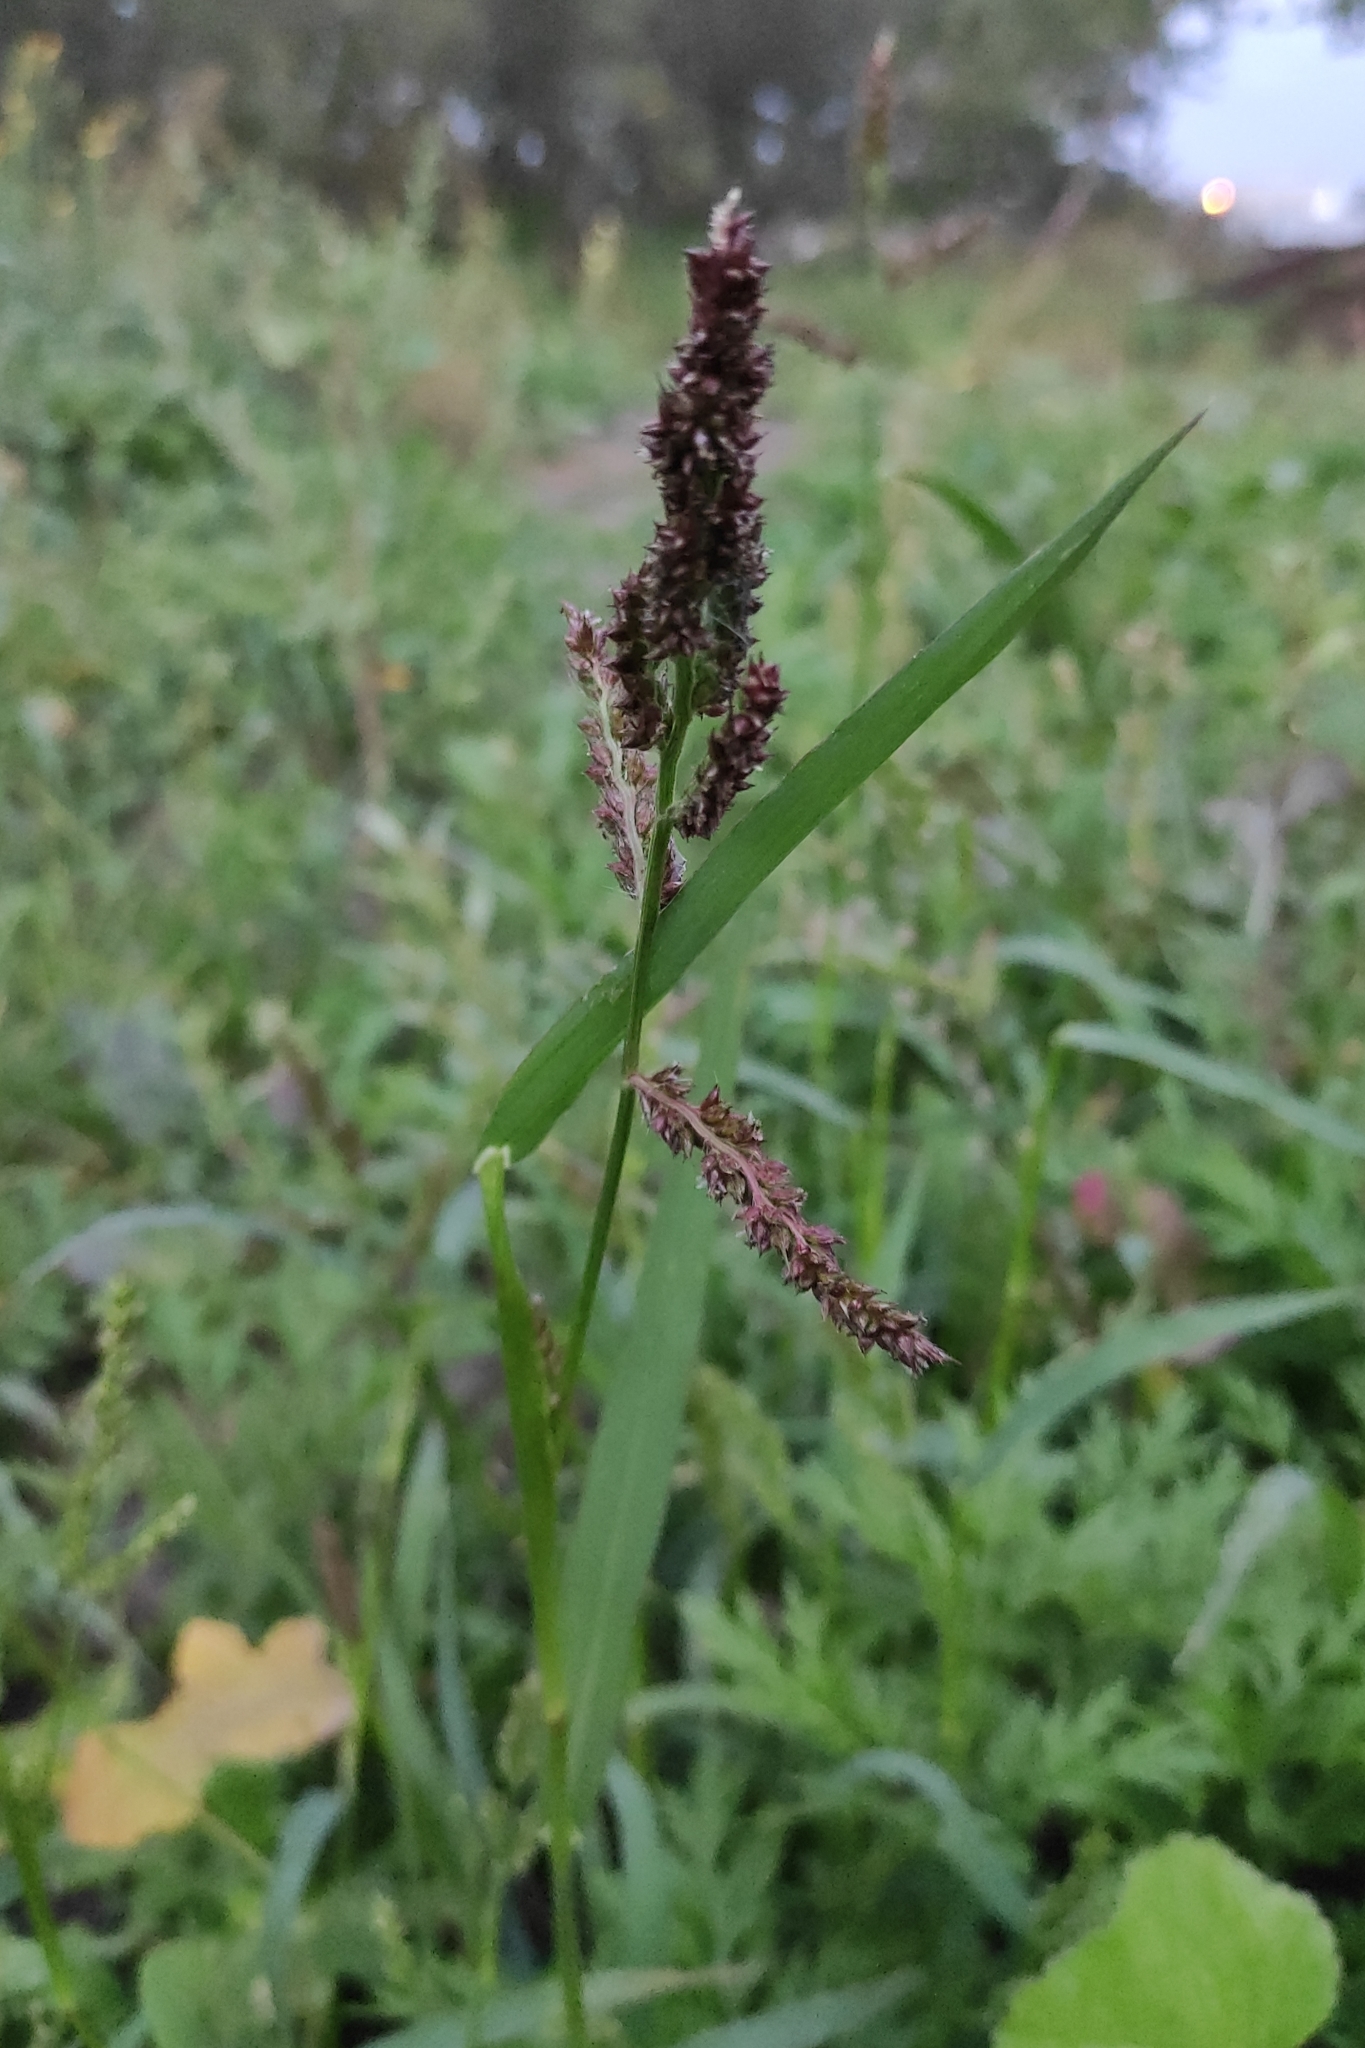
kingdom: Plantae
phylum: Tracheophyta
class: Liliopsida
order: Poales
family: Poaceae
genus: Echinochloa
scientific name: Echinochloa crus-galli
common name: Cockspur
